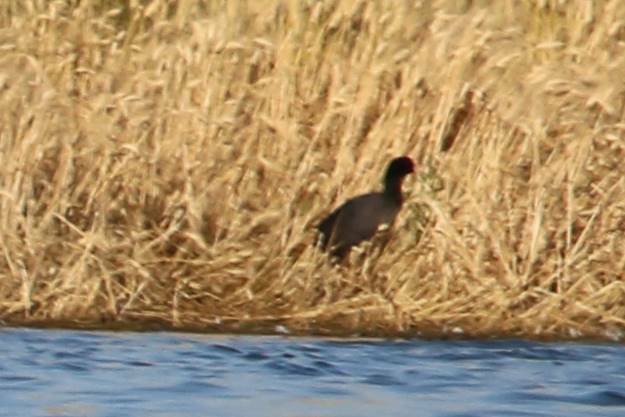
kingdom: Animalia
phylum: Chordata
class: Aves
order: Gruiformes
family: Rallidae
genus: Fulica
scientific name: Fulica atra
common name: Eurasian coot
